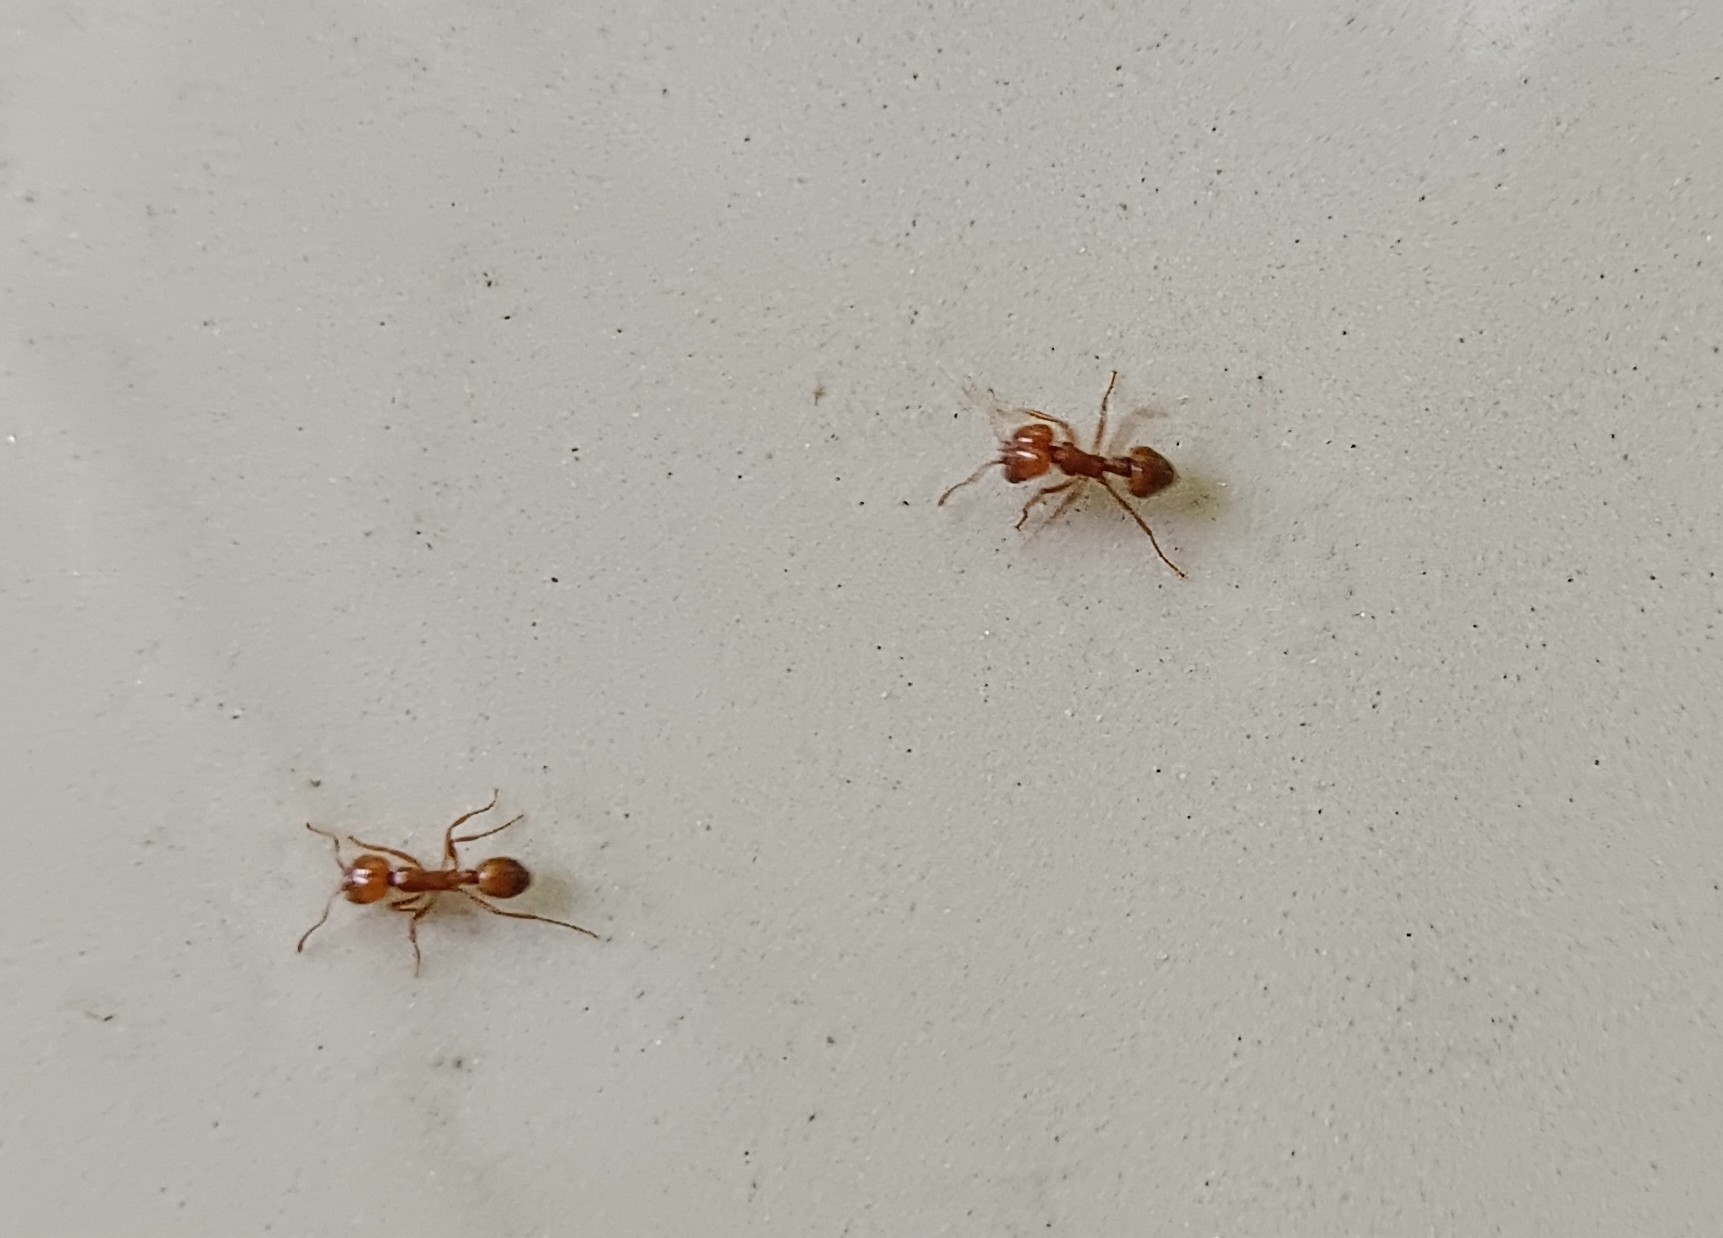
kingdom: Animalia
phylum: Arthropoda
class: Insecta
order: Hymenoptera
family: Formicidae
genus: Solenopsis
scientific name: Solenopsis geminata
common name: Tropical fire ant
